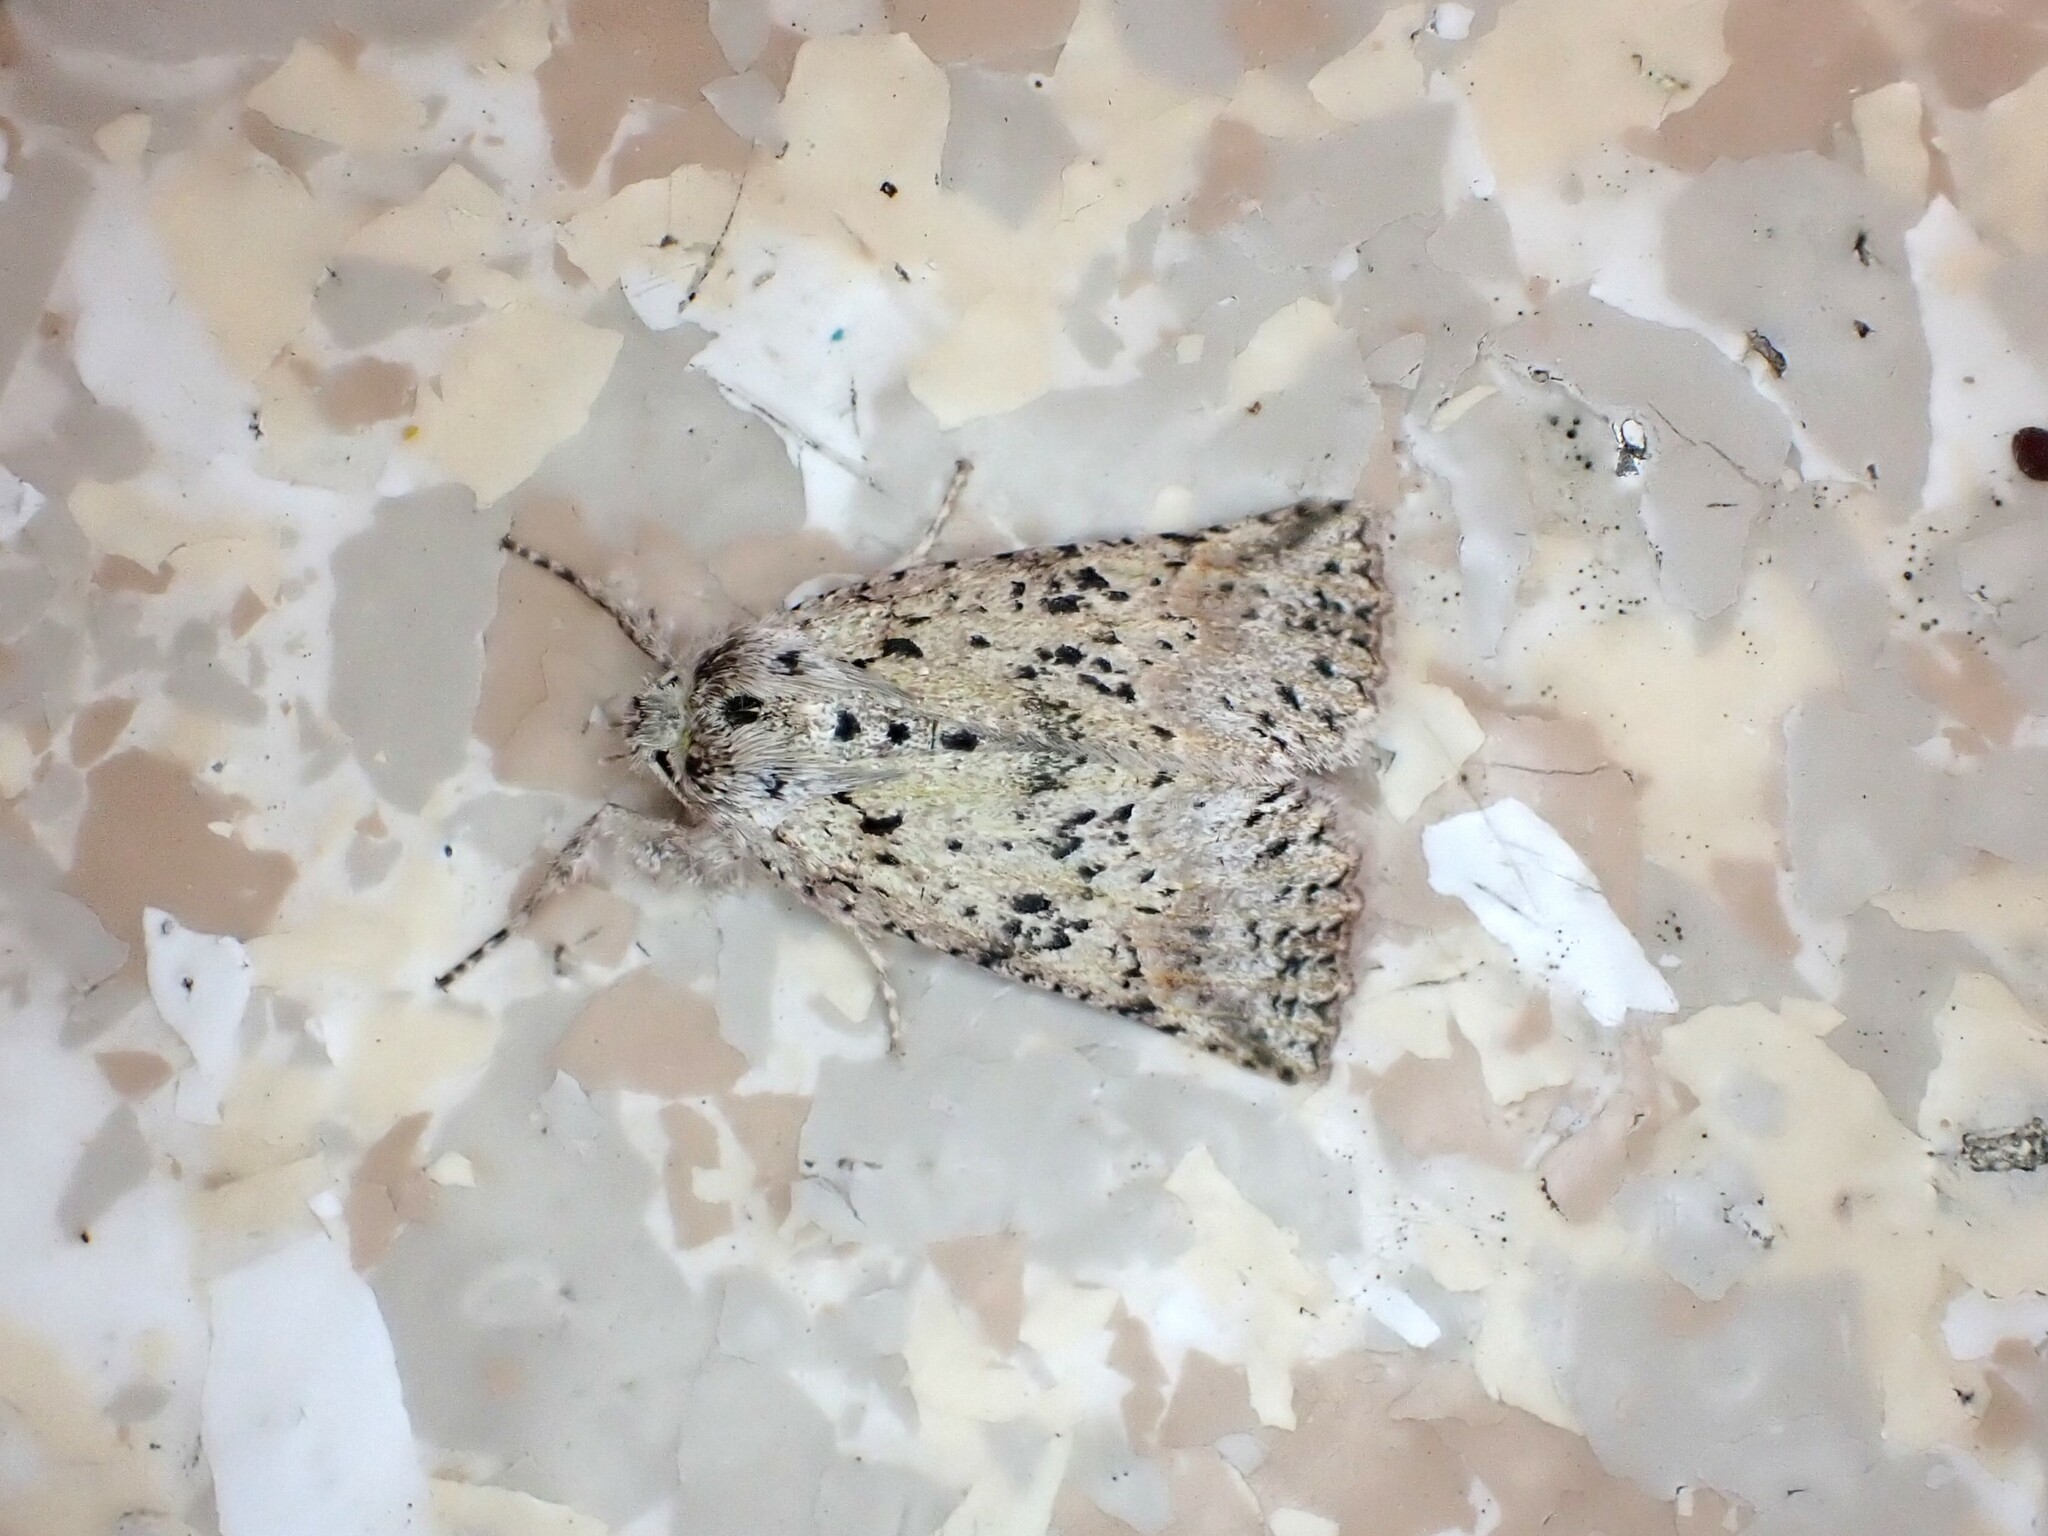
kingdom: Animalia
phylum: Arthropoda
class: Insecta
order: Lepidoptera
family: Geometridae
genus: Declana
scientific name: Declana floccosa
